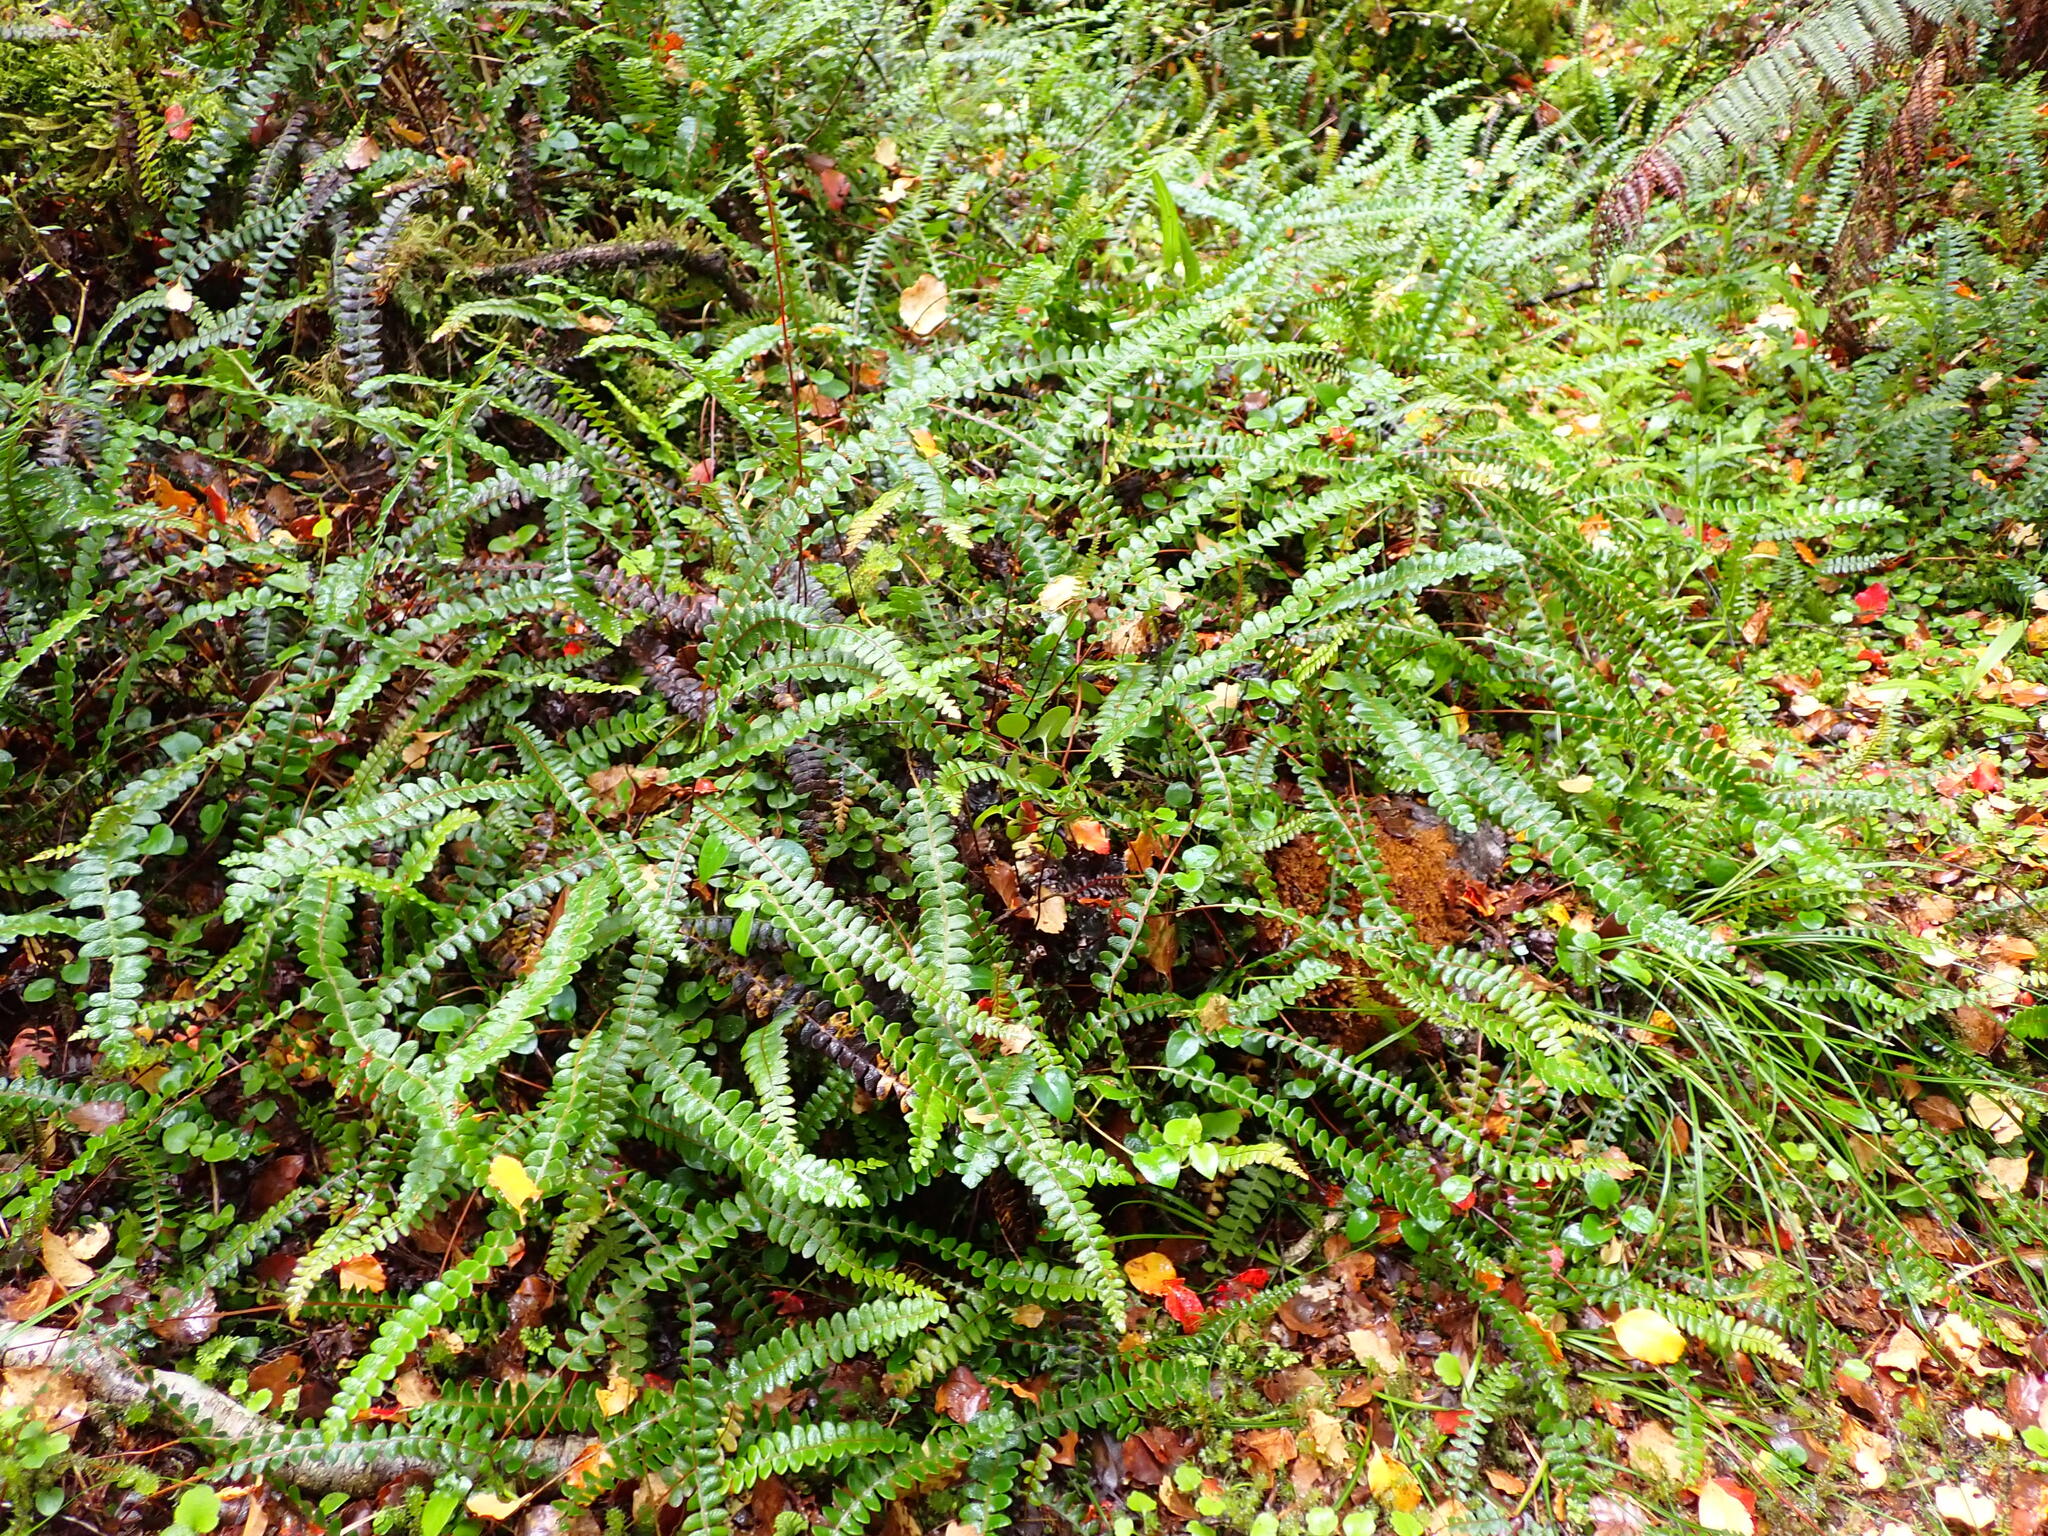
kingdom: Plantae
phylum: Tracheophyta
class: Polypodiopsida
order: Polypodiales
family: Blechnaceae
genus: Austroblechnum
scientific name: Austroblechnum penna-marina
